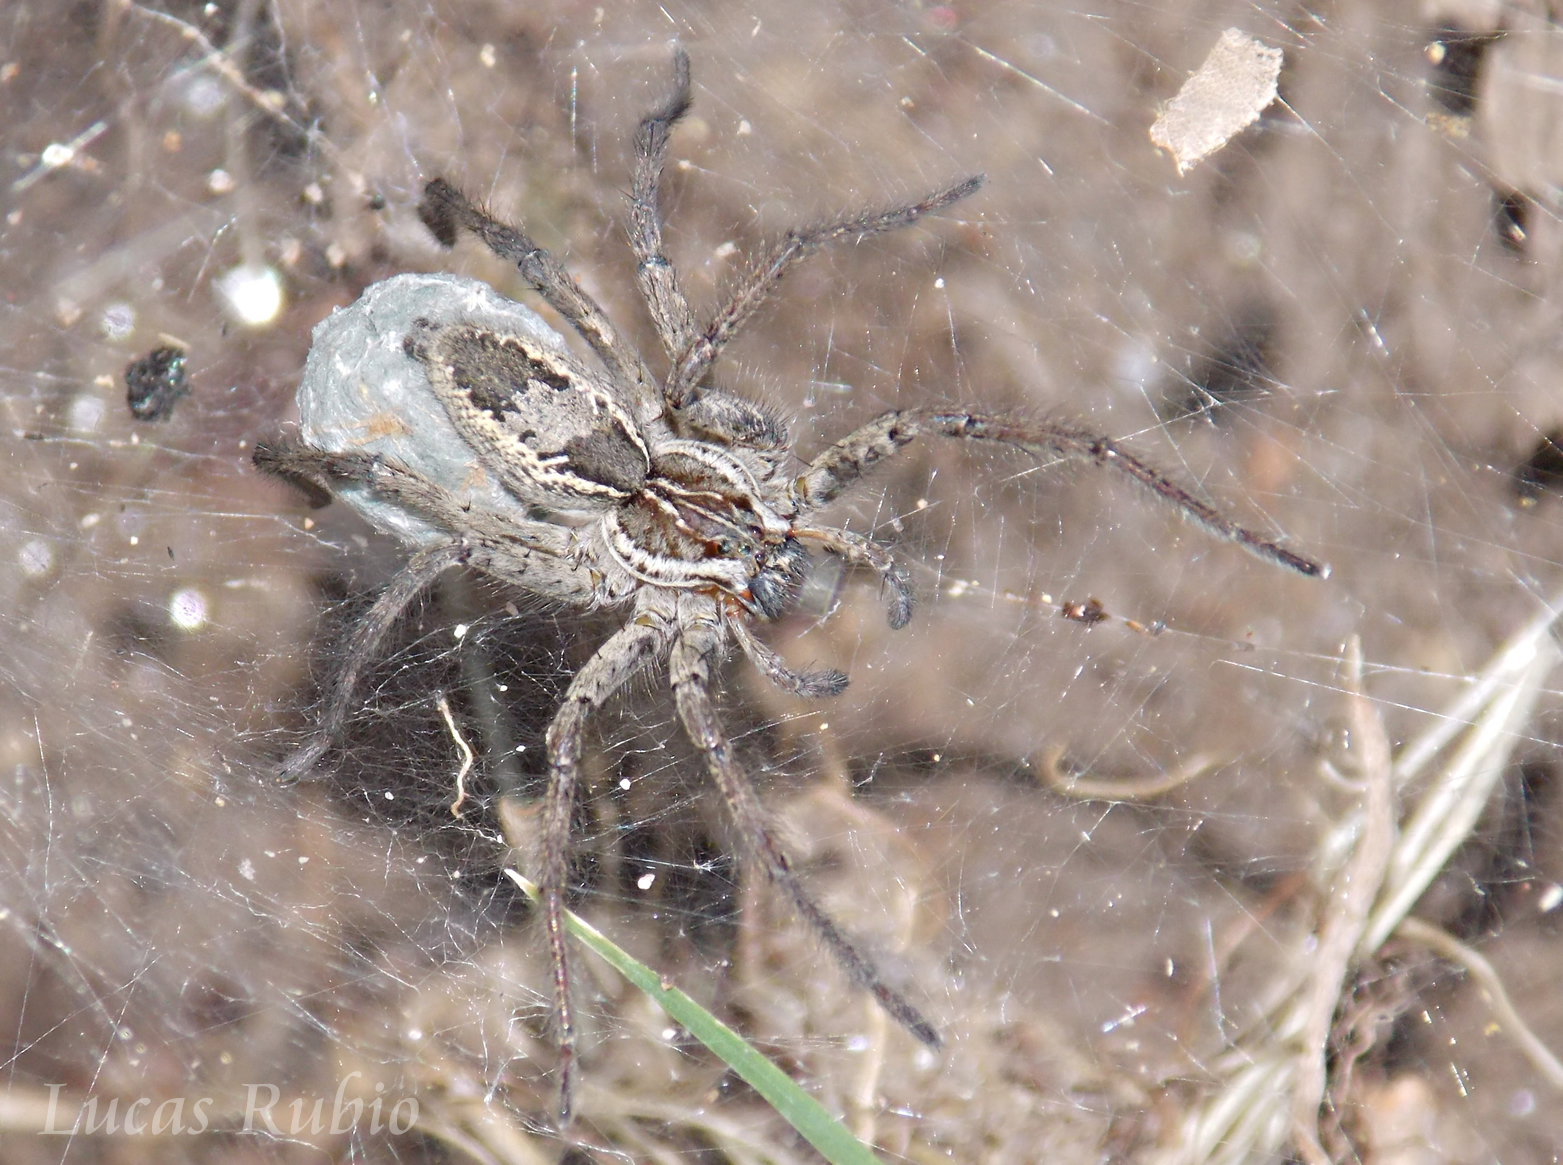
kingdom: Animalia
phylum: Arthropoda
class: Arachnida
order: Araneae
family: Lycosidae
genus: Aglaoctenus
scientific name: Aglaoctenus lagotis
